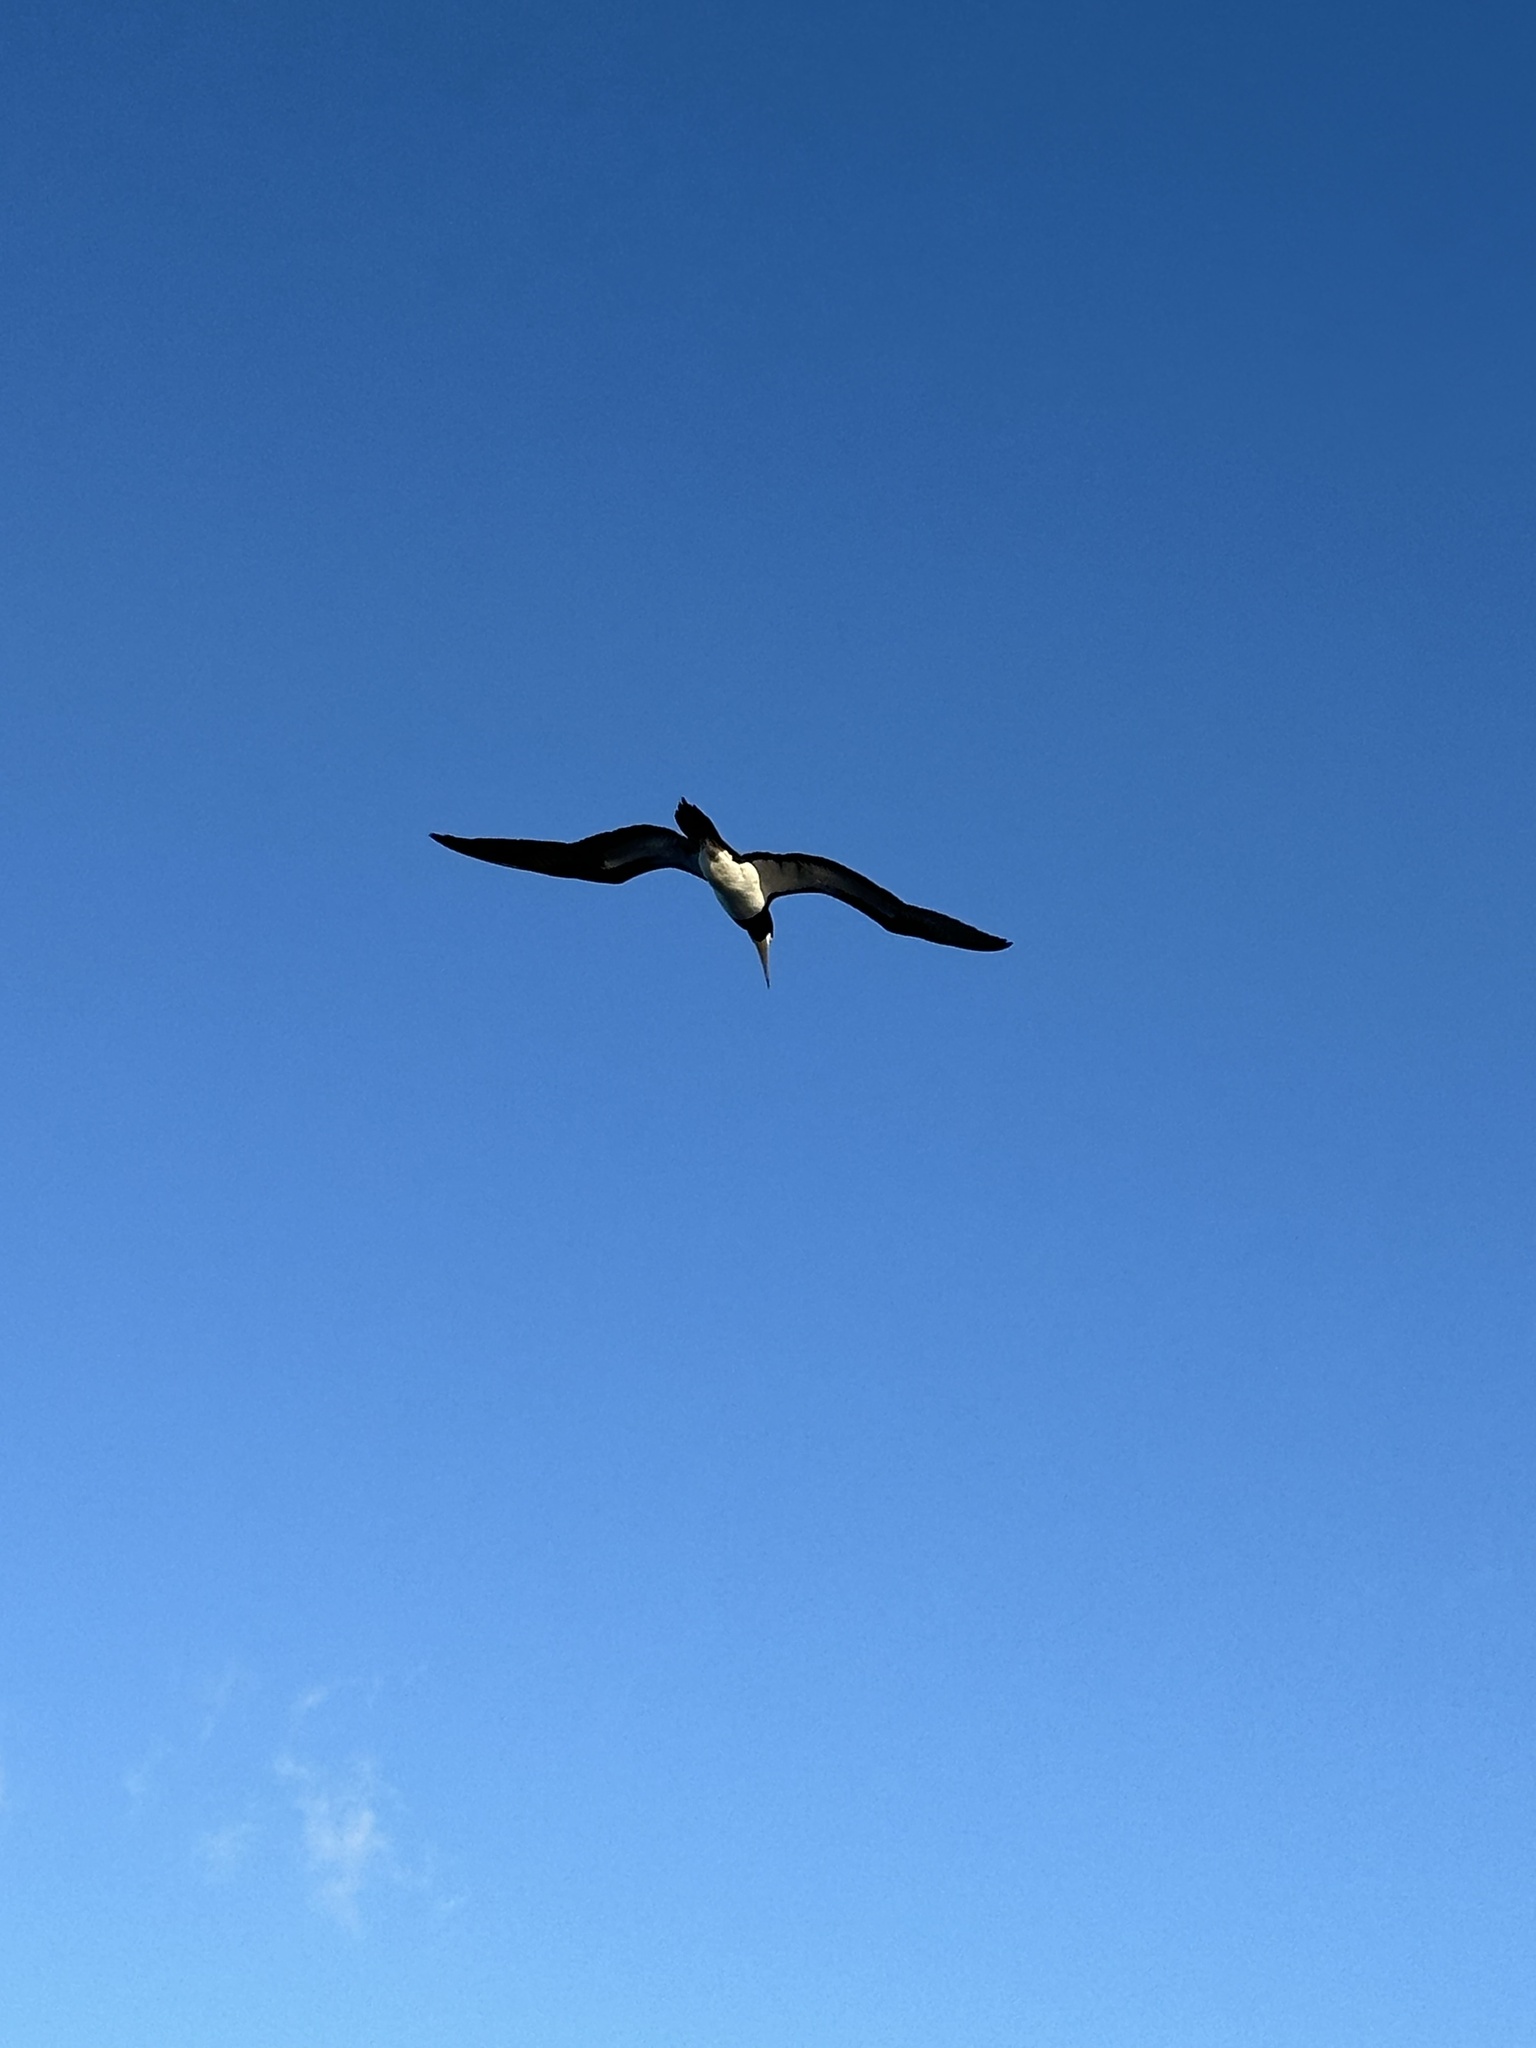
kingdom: Animalia
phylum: Chordata
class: Aves
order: Suliformes
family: Sulidae
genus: Sula
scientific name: Sula leucogaster
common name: Brown booby
